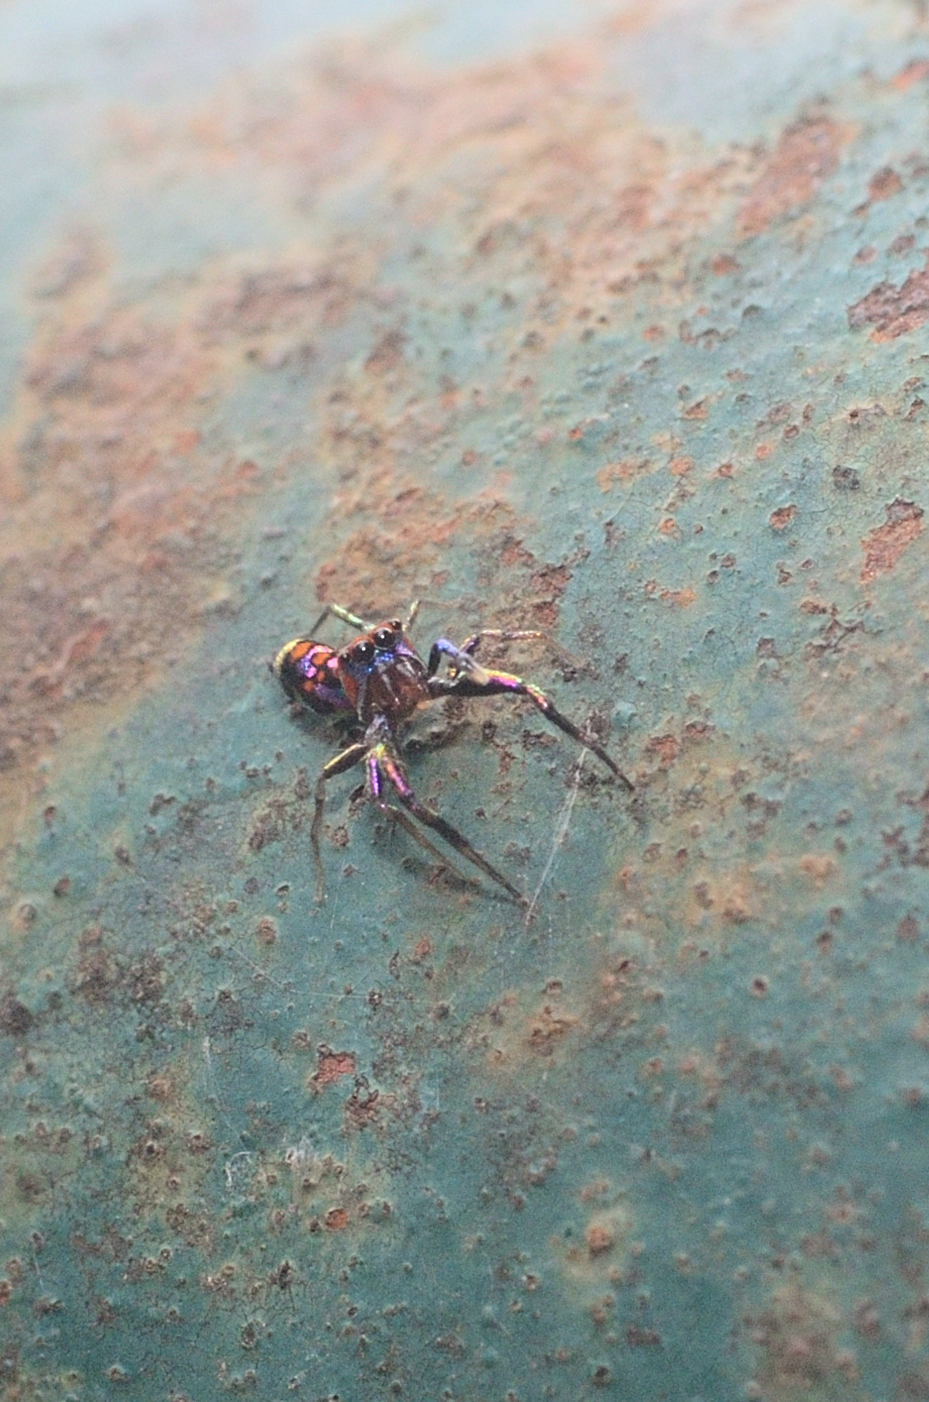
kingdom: Animalia
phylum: Arthropoda
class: Arachnida
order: Araneae
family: Salticidae
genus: Chrysilla
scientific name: Chrysilla volupe
